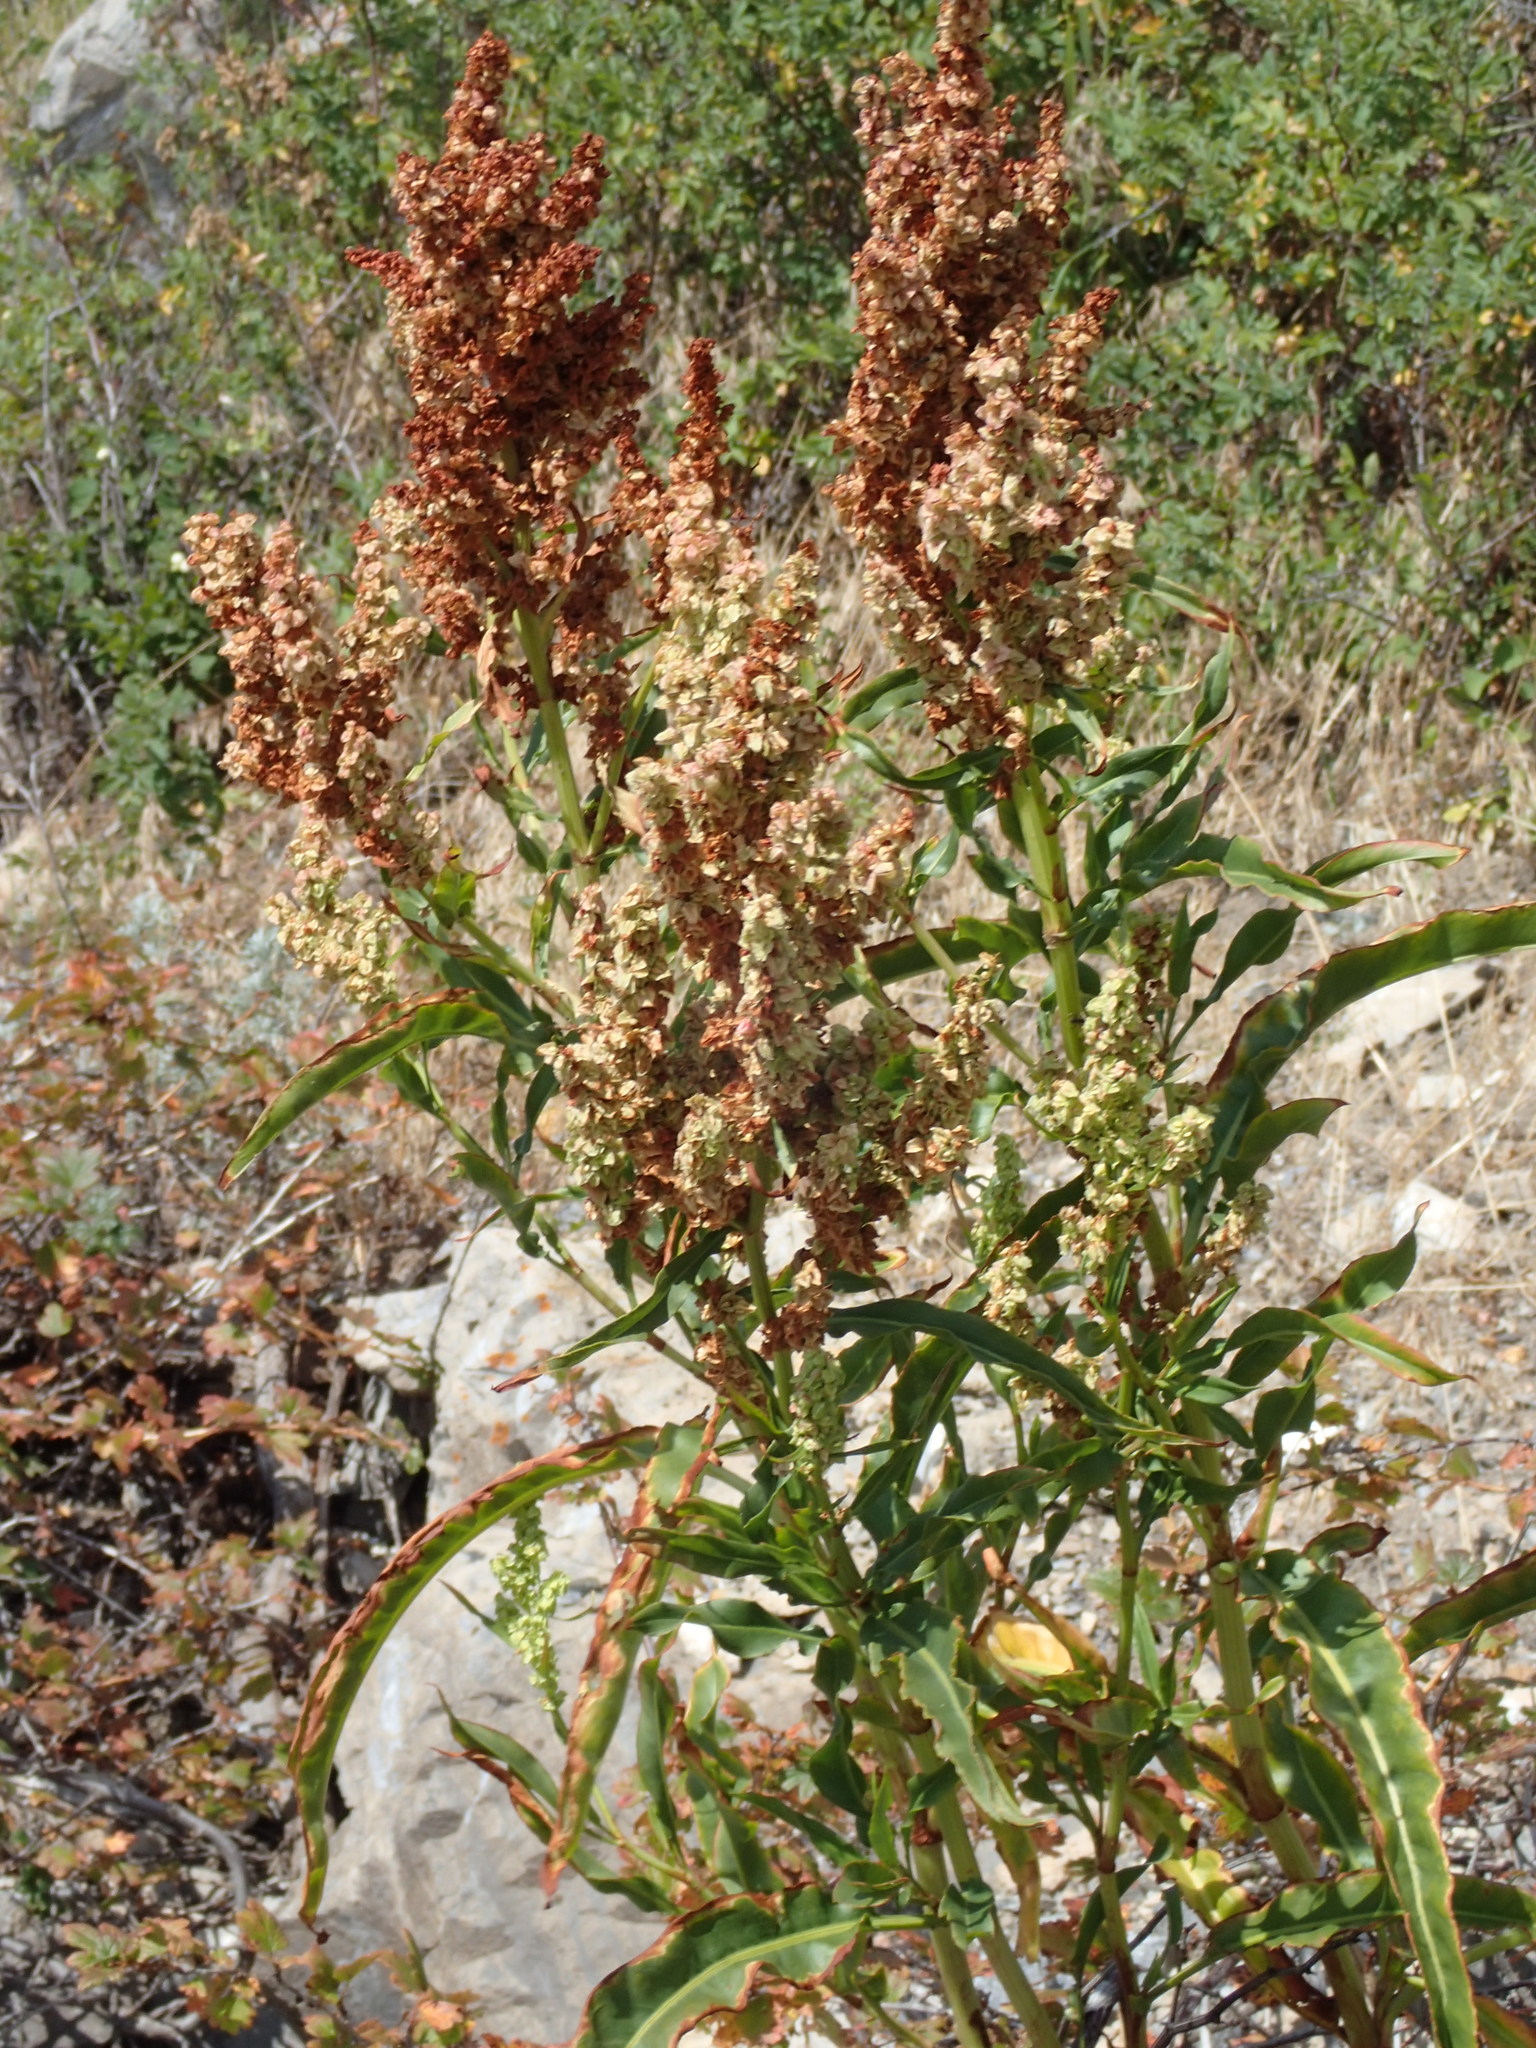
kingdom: Plantae
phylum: Tracheophyta
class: Magnoliopsida
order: Caryophyllales
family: Polygonaceae
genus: Rumex
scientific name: Rumex triangulivalvis
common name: Triangular-valve dock
